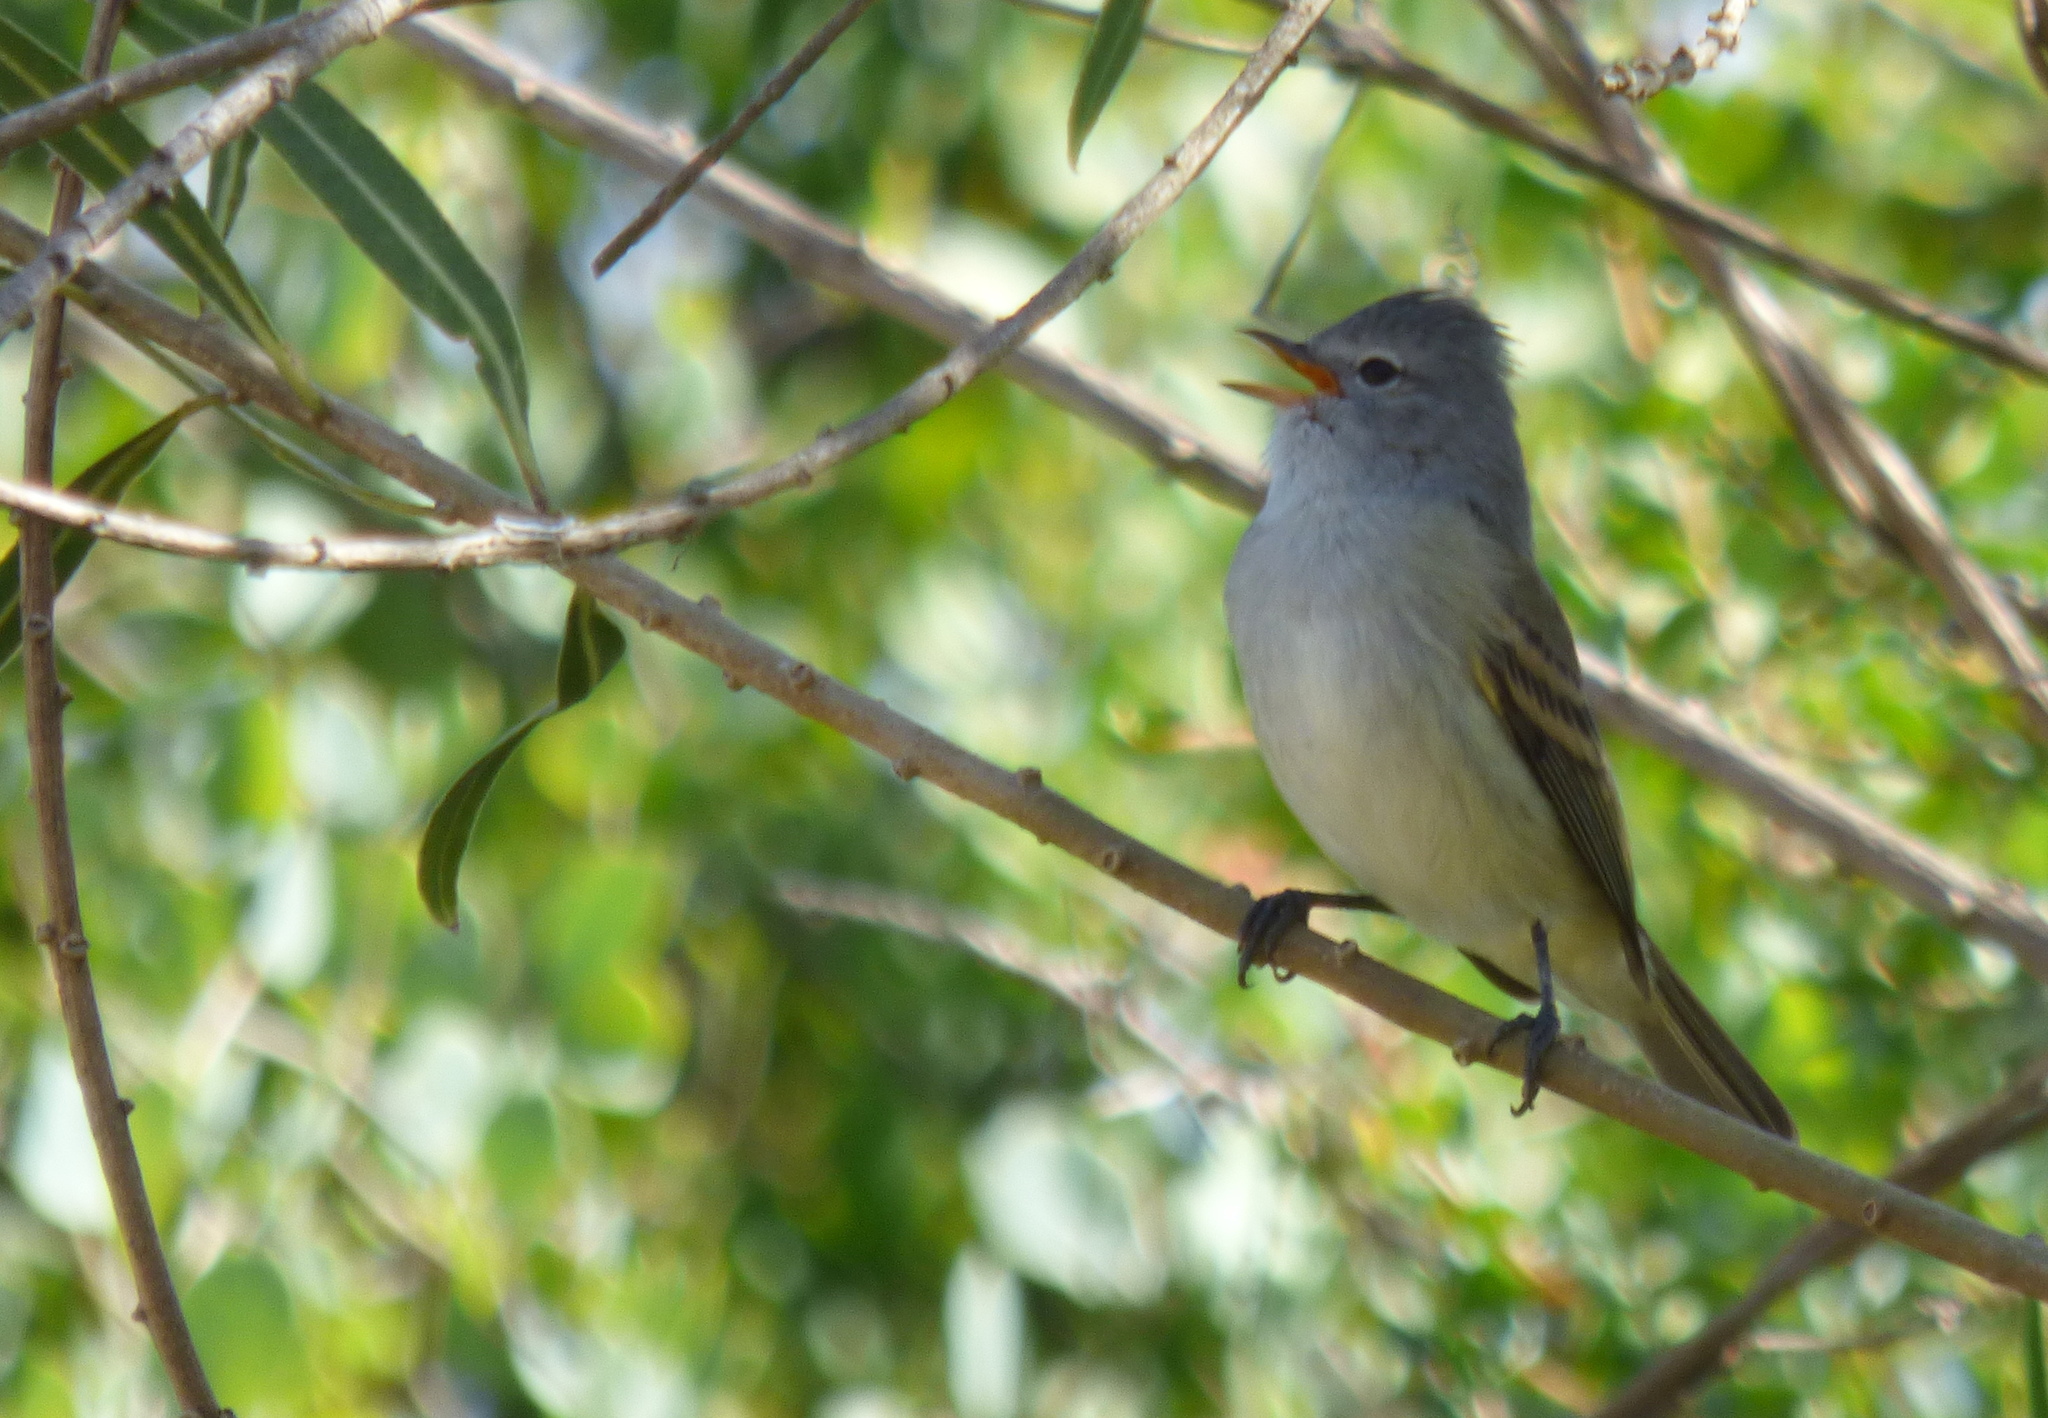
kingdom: Animalia
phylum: Chordata
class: Aves
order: Passeriformes
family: Tyrannidae
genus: Camptostoma
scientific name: Camptostoma obsoletum
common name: Southern beardless-tyrannulet
